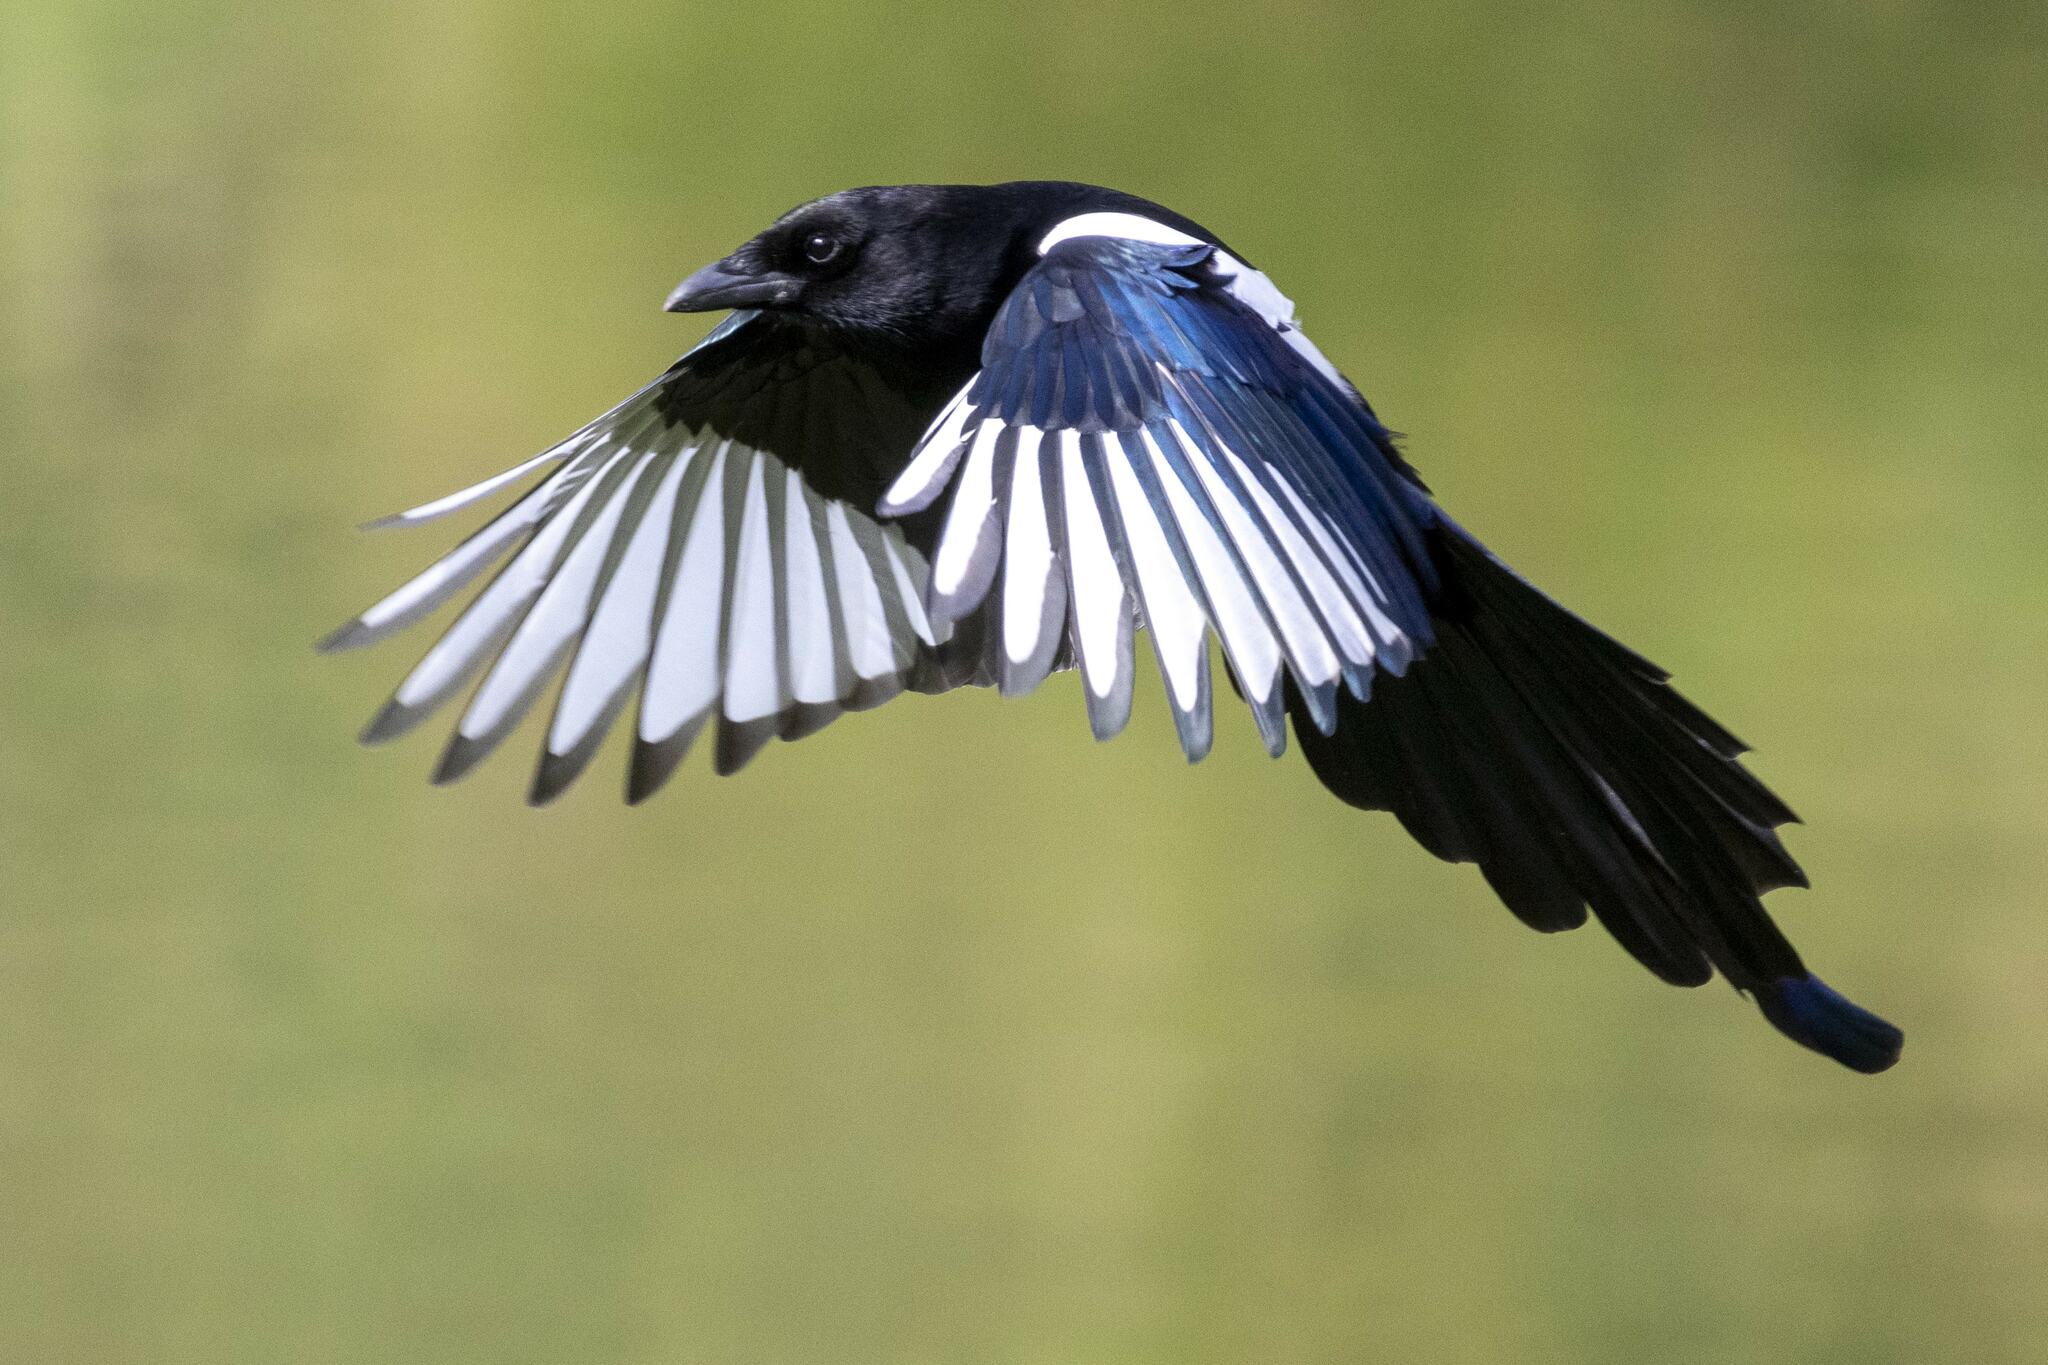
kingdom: Animalia
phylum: Chordata
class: Aves
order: Passeriformes
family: Corvidae
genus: Pica
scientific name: Pica pica
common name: Eurasian magpie
